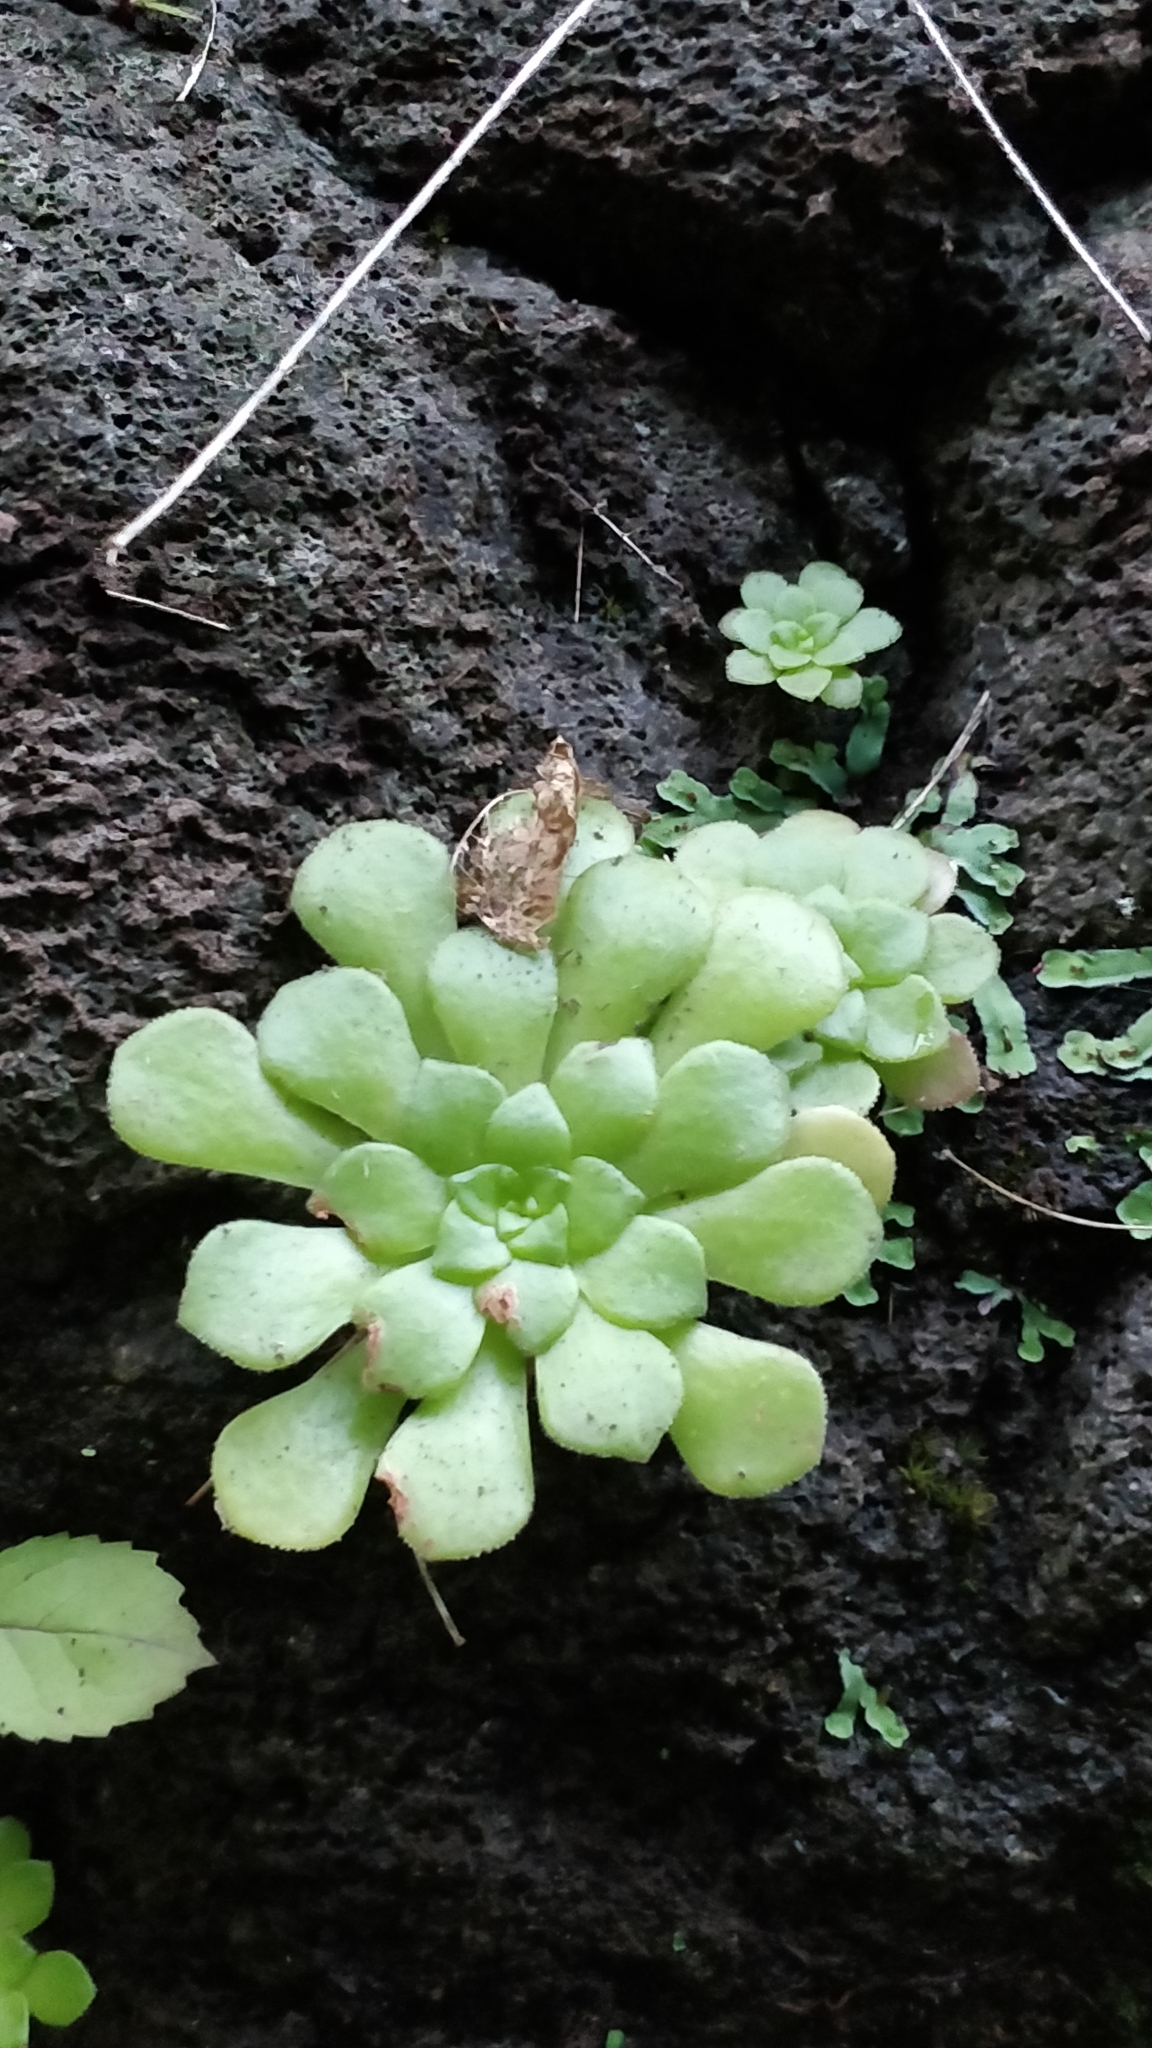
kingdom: Plantae
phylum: Tracheophyta
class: Magnoliopsida
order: Saxifragales
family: Crassulaceae
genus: Aeonium
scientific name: Aeonium glandulosum
